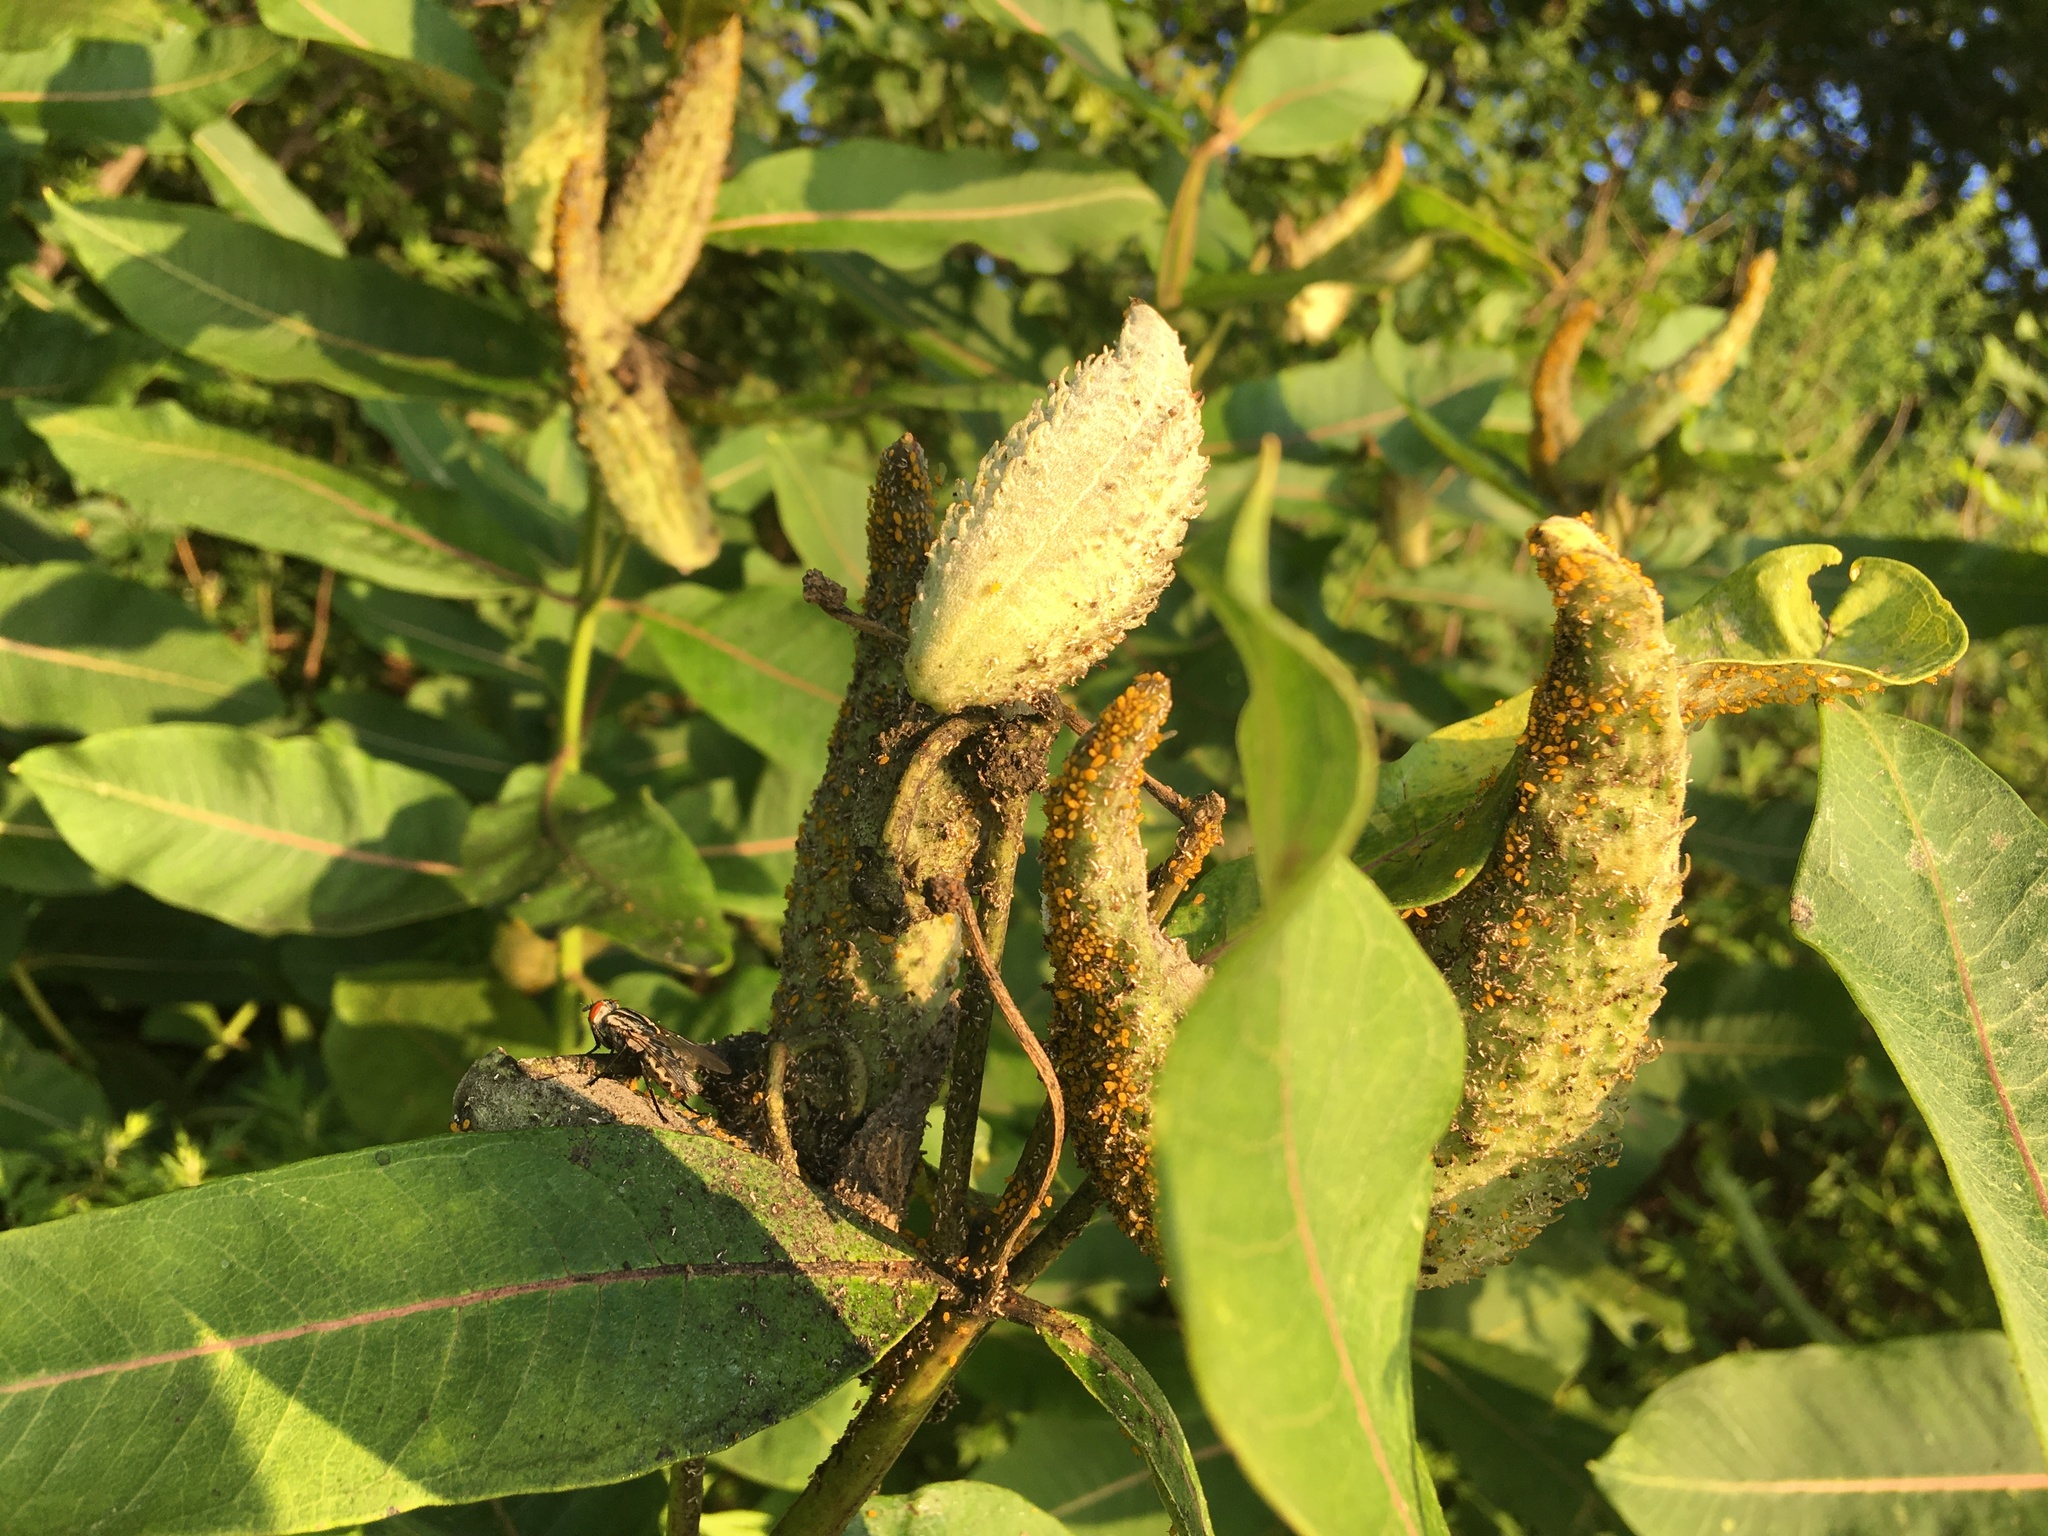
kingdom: Plantae
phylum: Tracheophyta
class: Magnoliopsida
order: Gentianales
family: Apocynaceae
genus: Asclepias
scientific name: Asclepias syriaca
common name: Common milkweed
